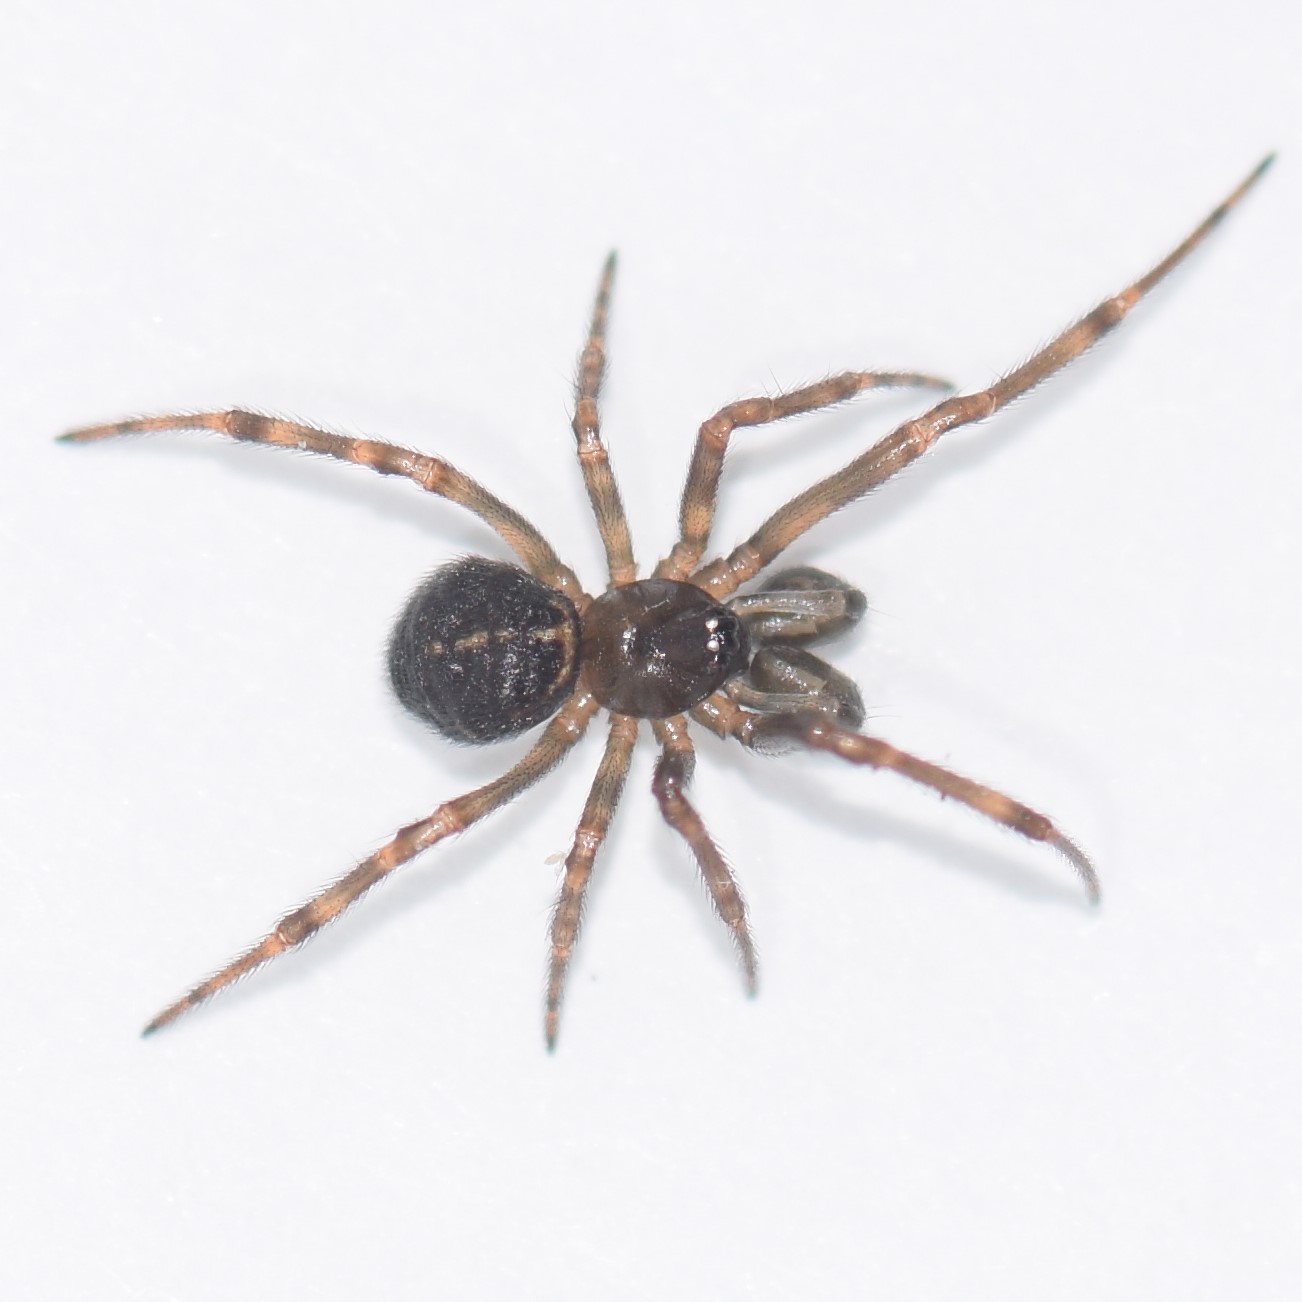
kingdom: Animalia
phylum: Arthropoda
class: Arachnida
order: Araneae
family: Theridiidae
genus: Steatoda
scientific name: Steatoda borealis
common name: Boreal combfoot
